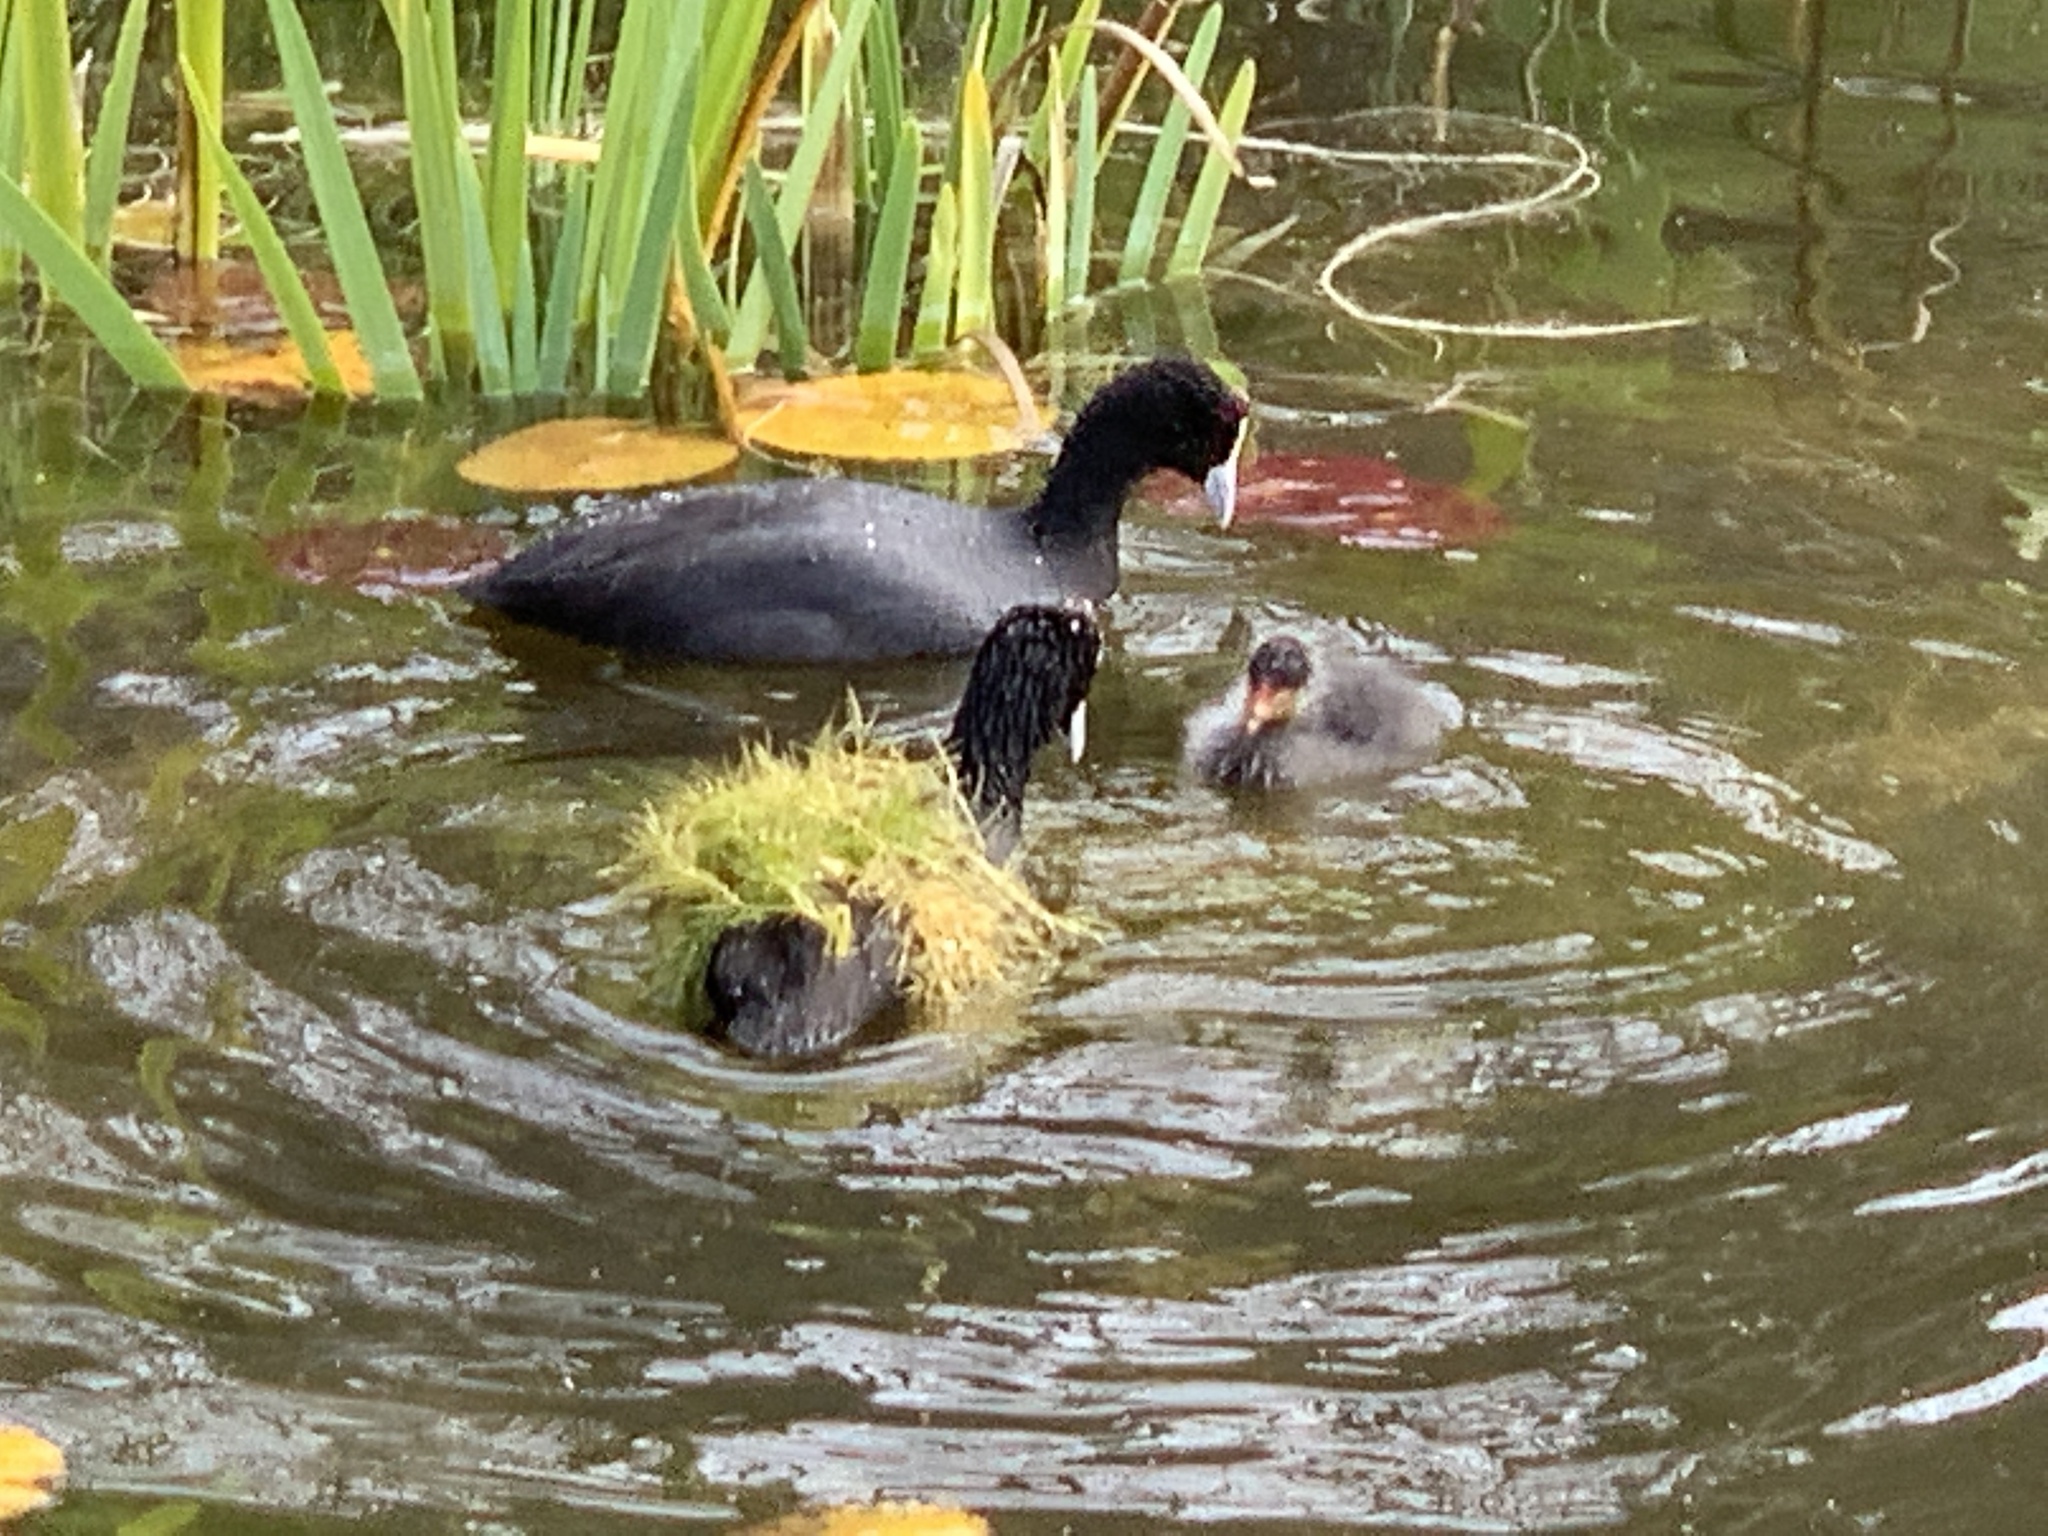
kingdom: Animalia
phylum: Chordata
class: Aves
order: Gruiformes
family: Rallidae
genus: Fulica
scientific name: Fulica cristata
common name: Red-knobbed coot
